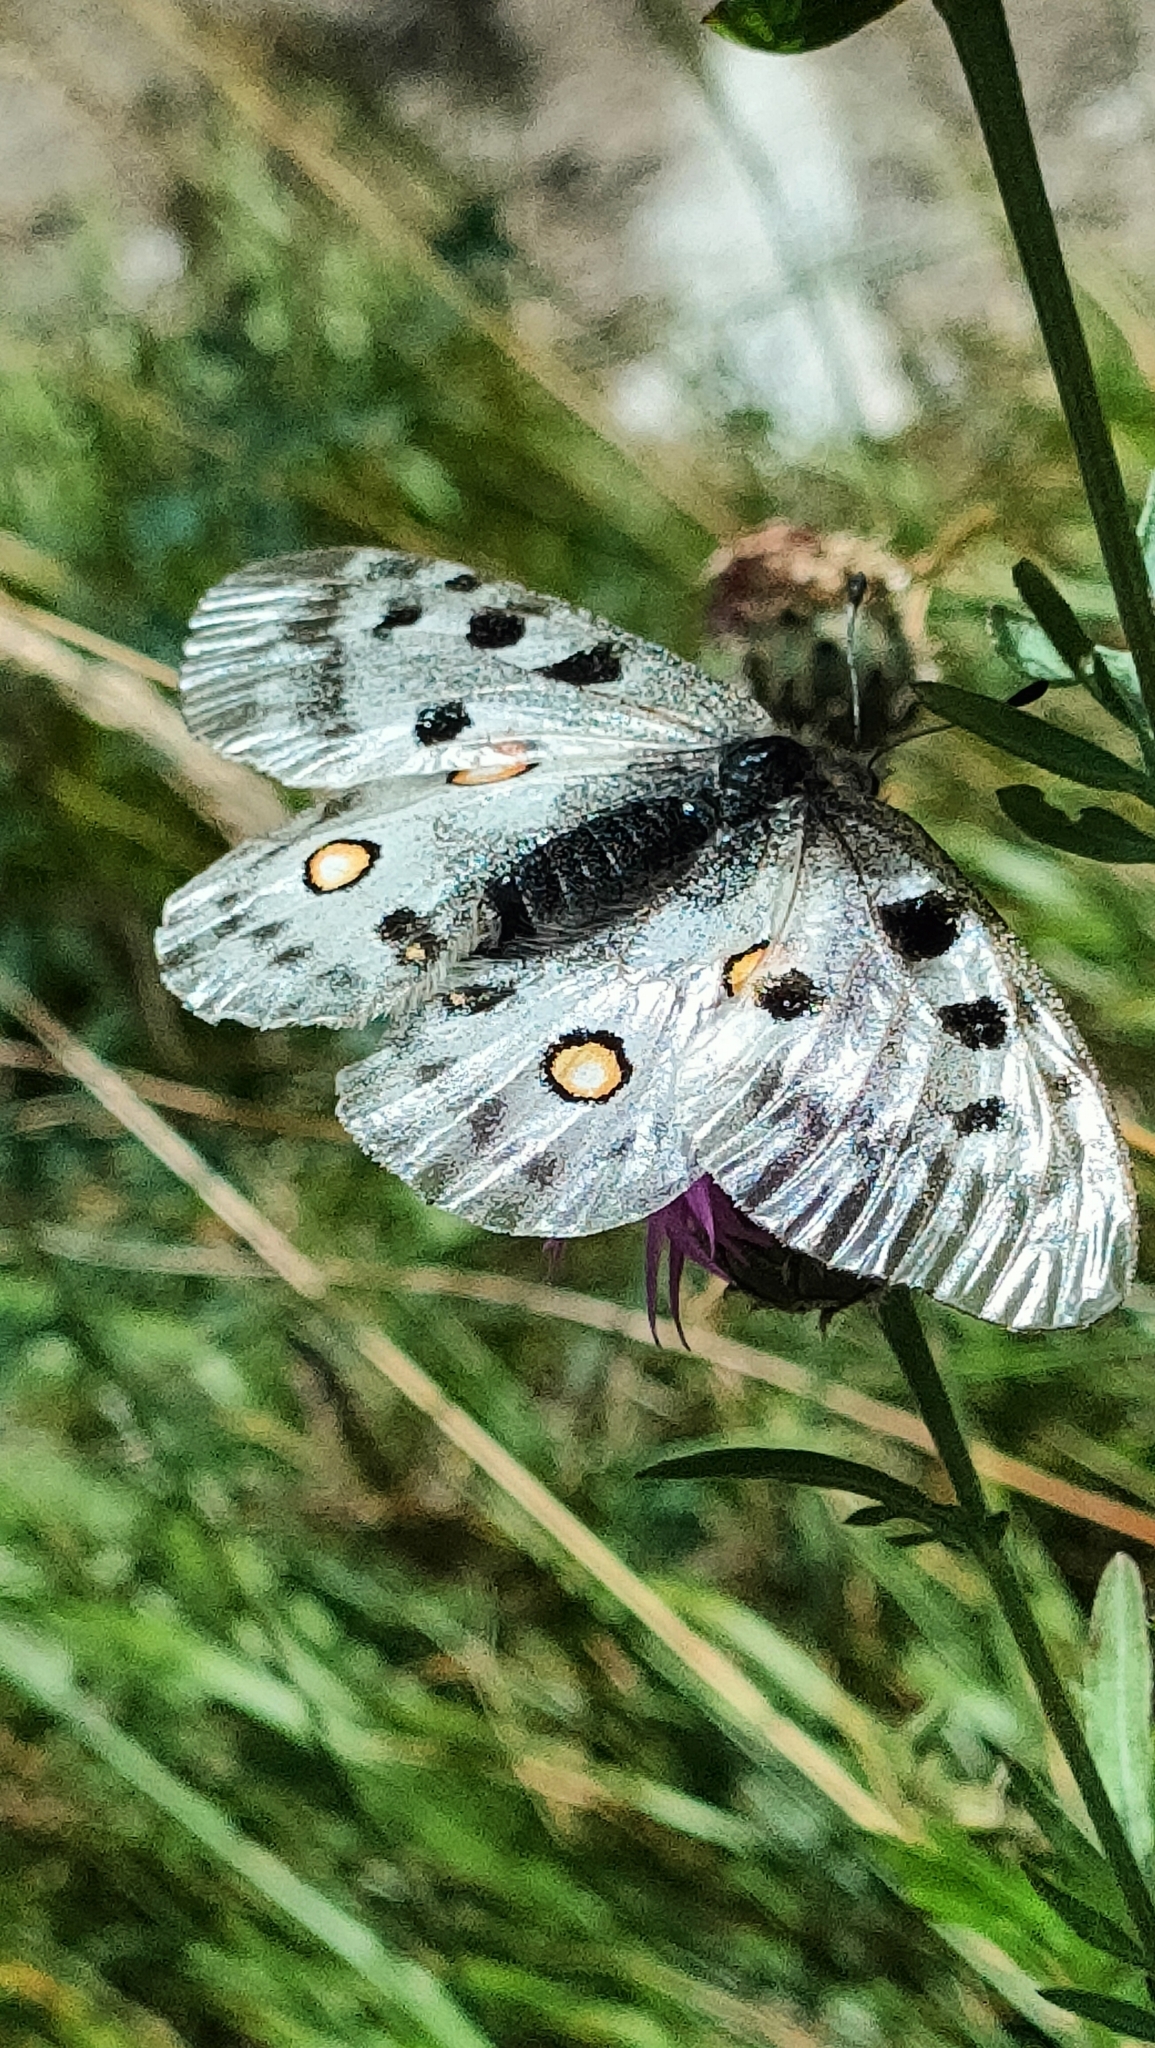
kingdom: Animalia
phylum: Arthropoda
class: Insecta
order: Lepidoptera
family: Papilionidae
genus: Parnassius
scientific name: Parnassius apollo
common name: Apollo
